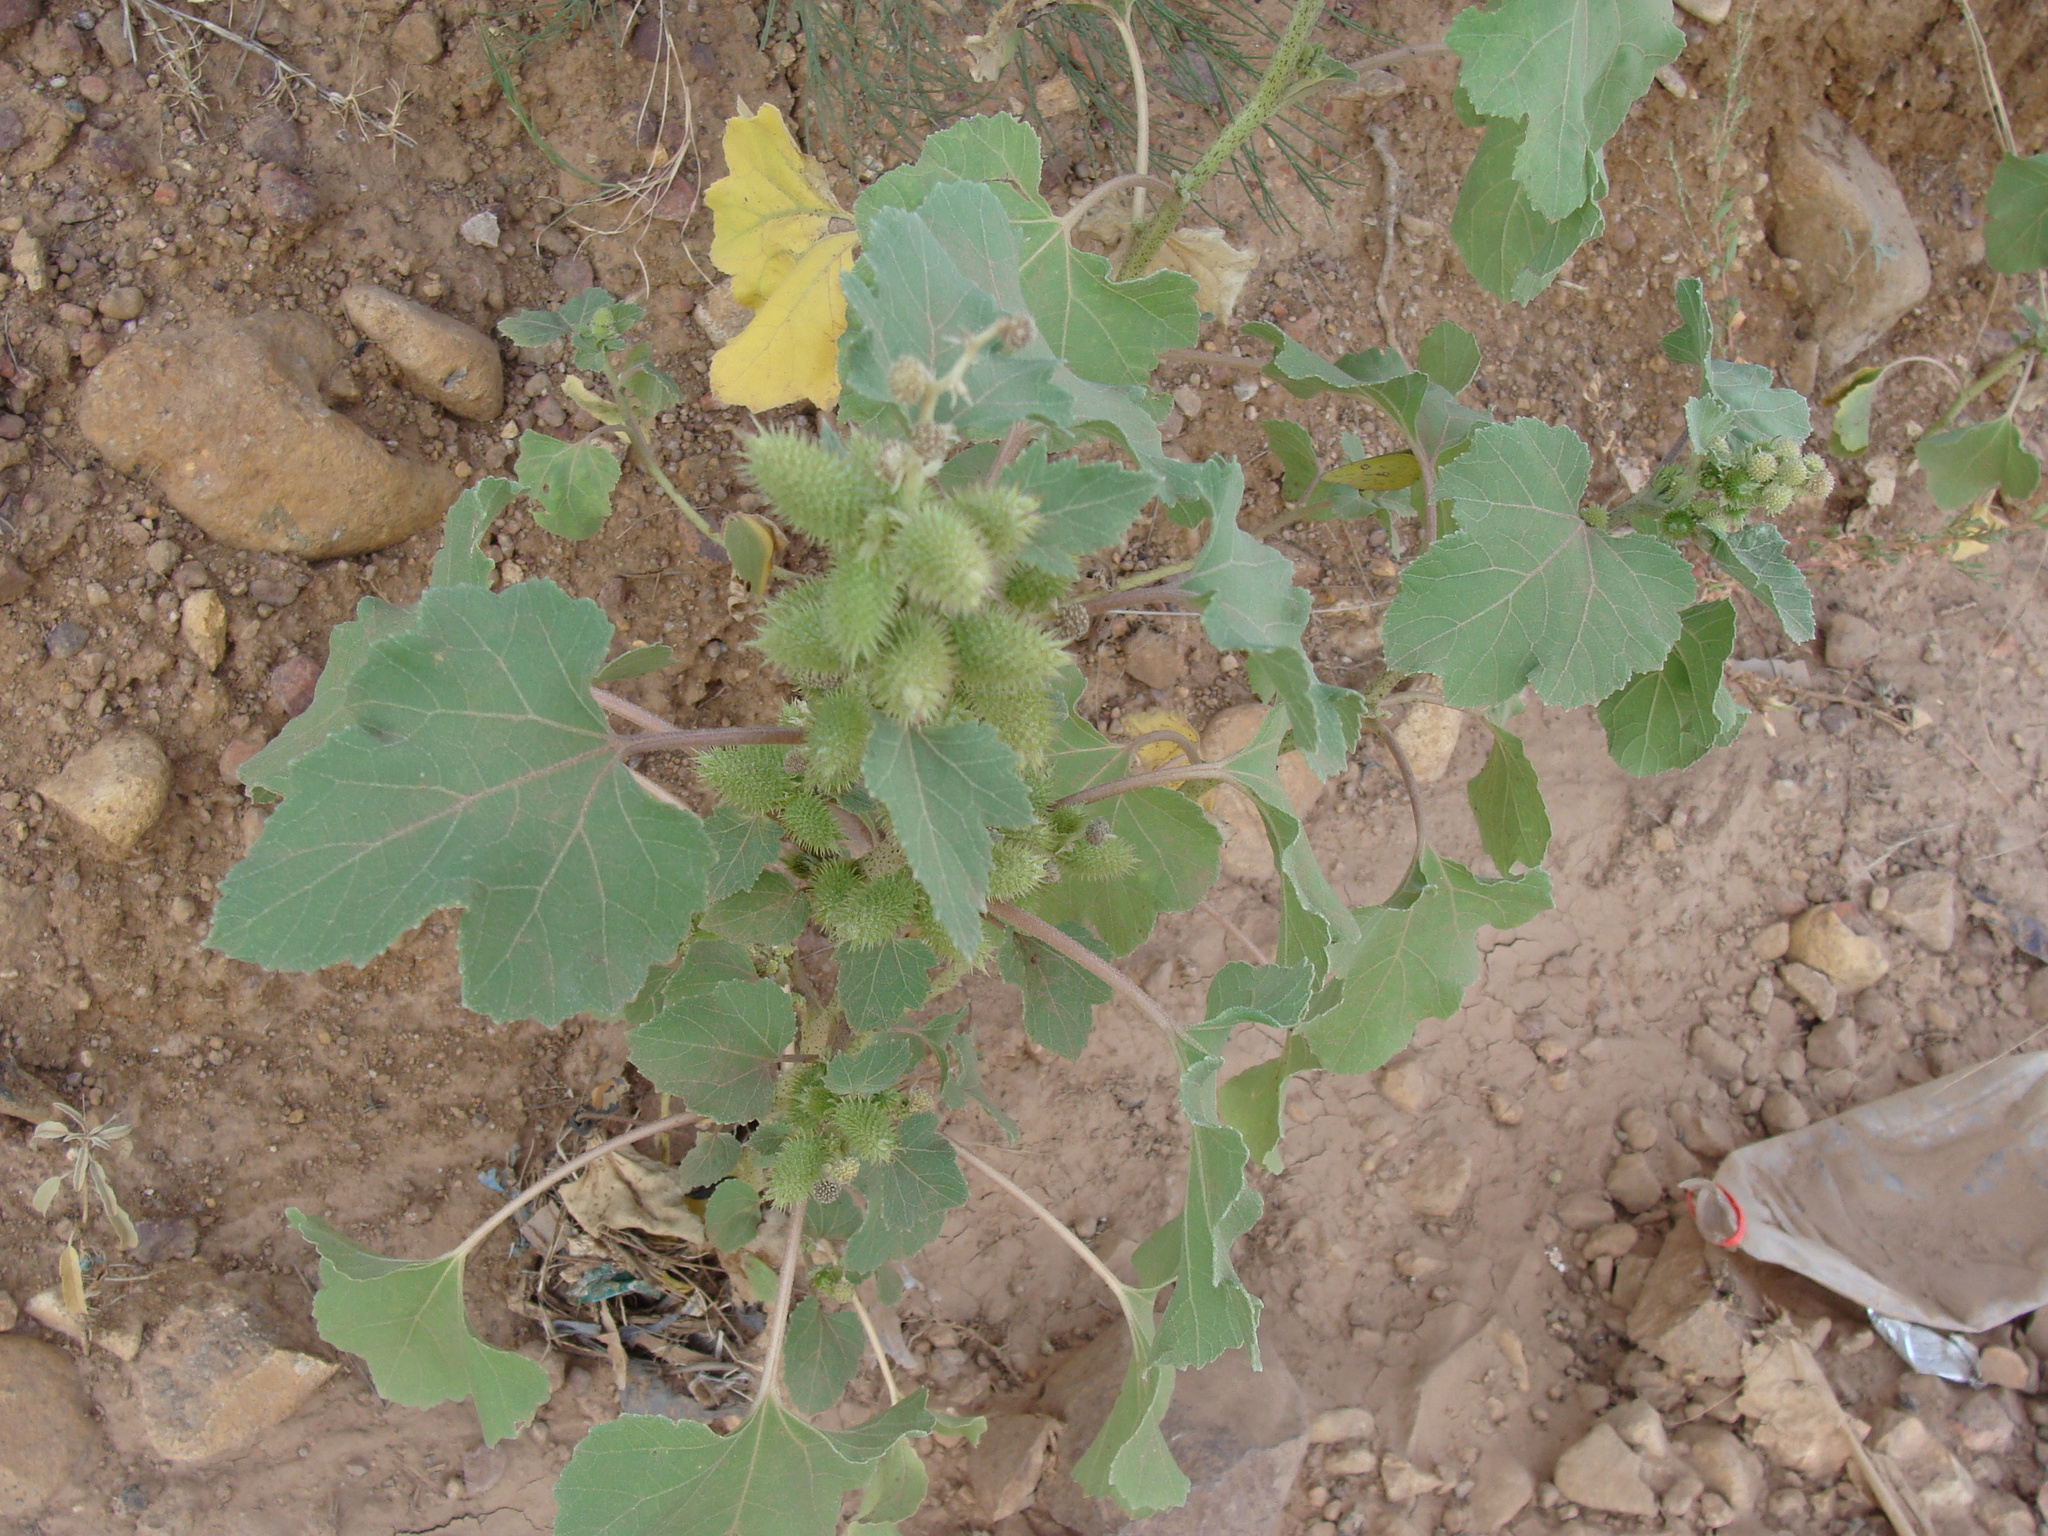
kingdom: Plantae
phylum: Tracheophyta
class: Magnoliopsida
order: Asterales
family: Asteraceae
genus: Xanthium
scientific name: Xanthium strumarium
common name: Rough cocklebur
